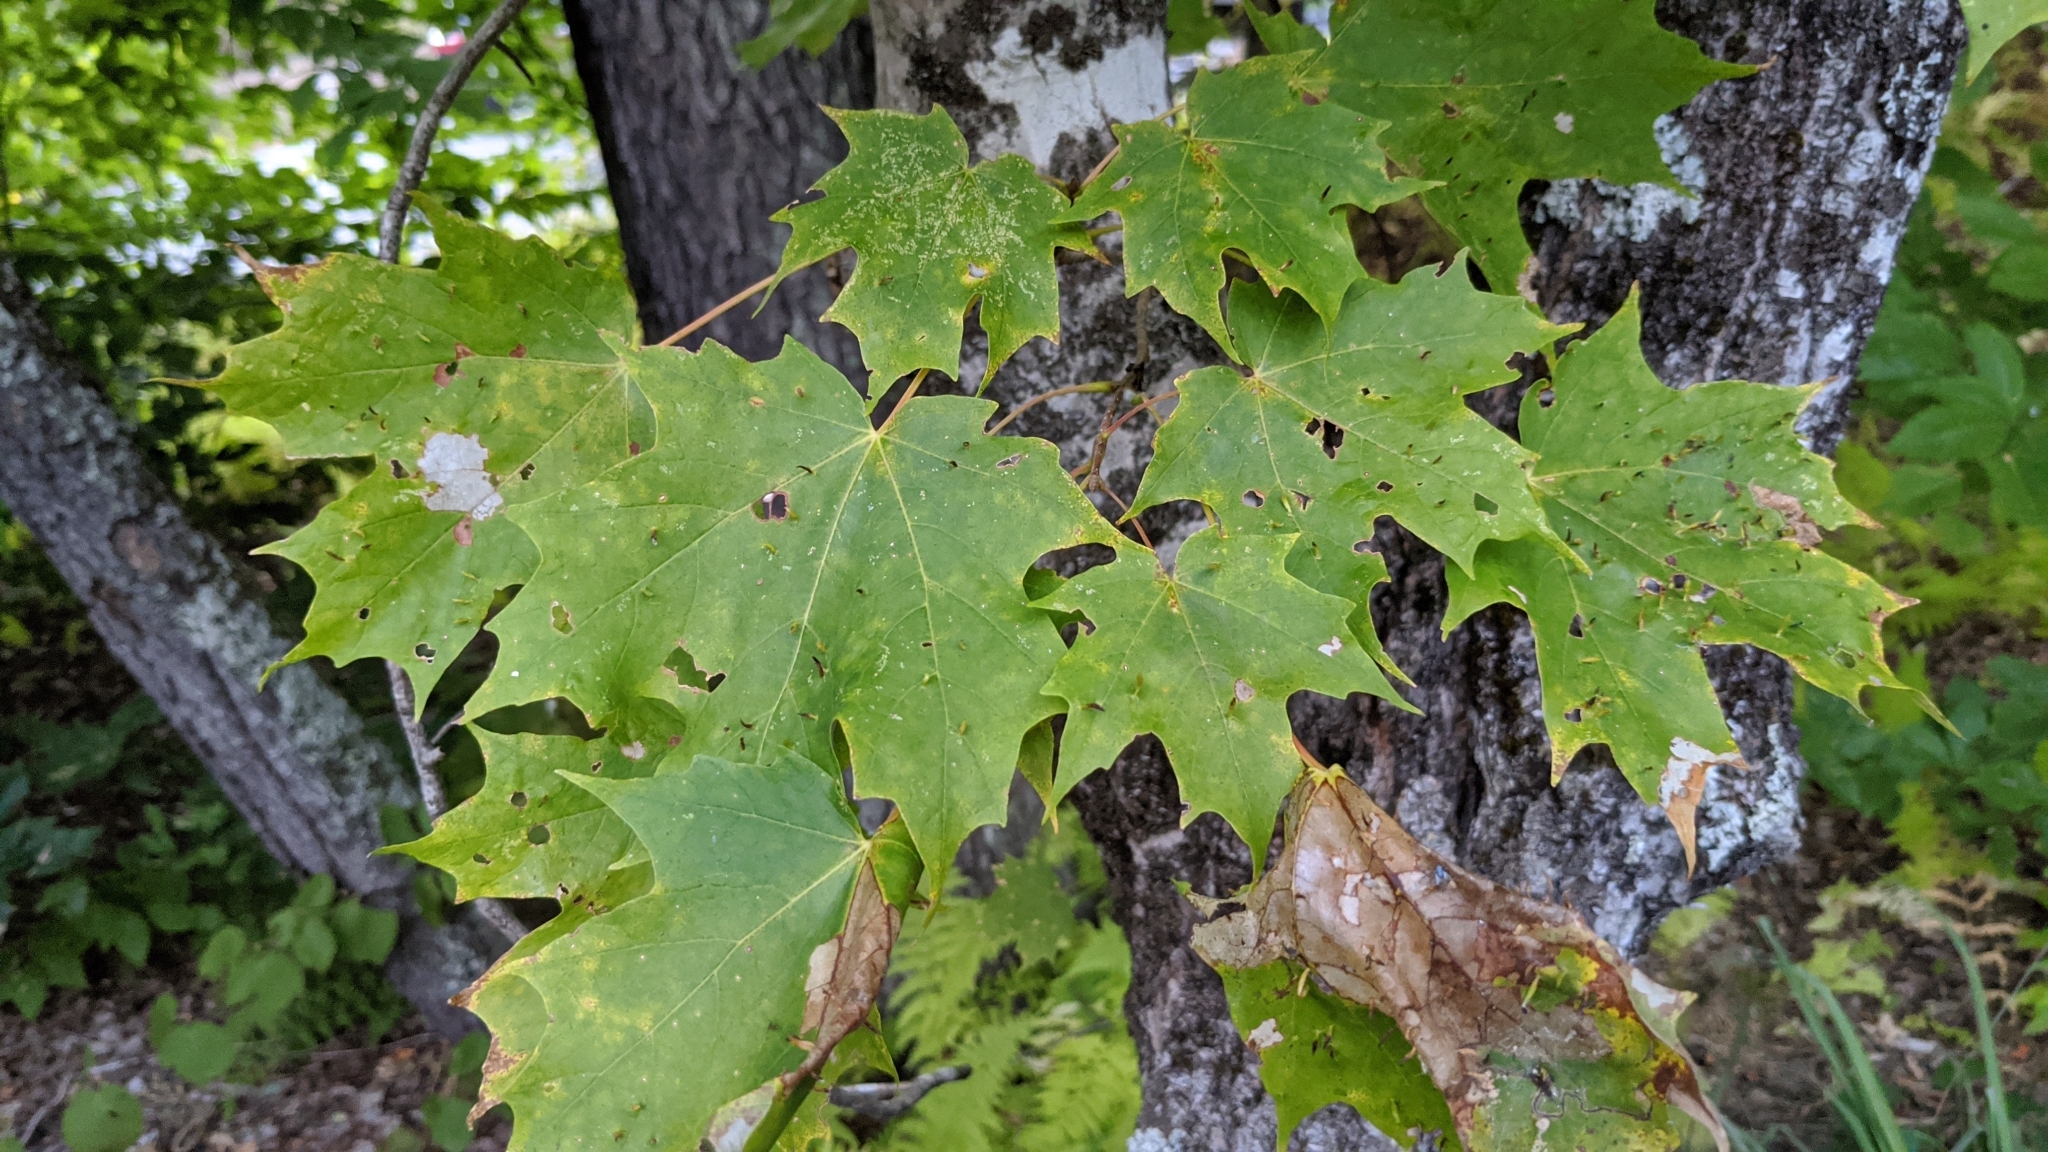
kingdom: Animalia
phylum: Arthropoda
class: Arachnida
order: Trombidiformes
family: Eriophyidae
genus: Vasates
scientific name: Vasates aceriscrumena
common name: Maple spindle gall mite
